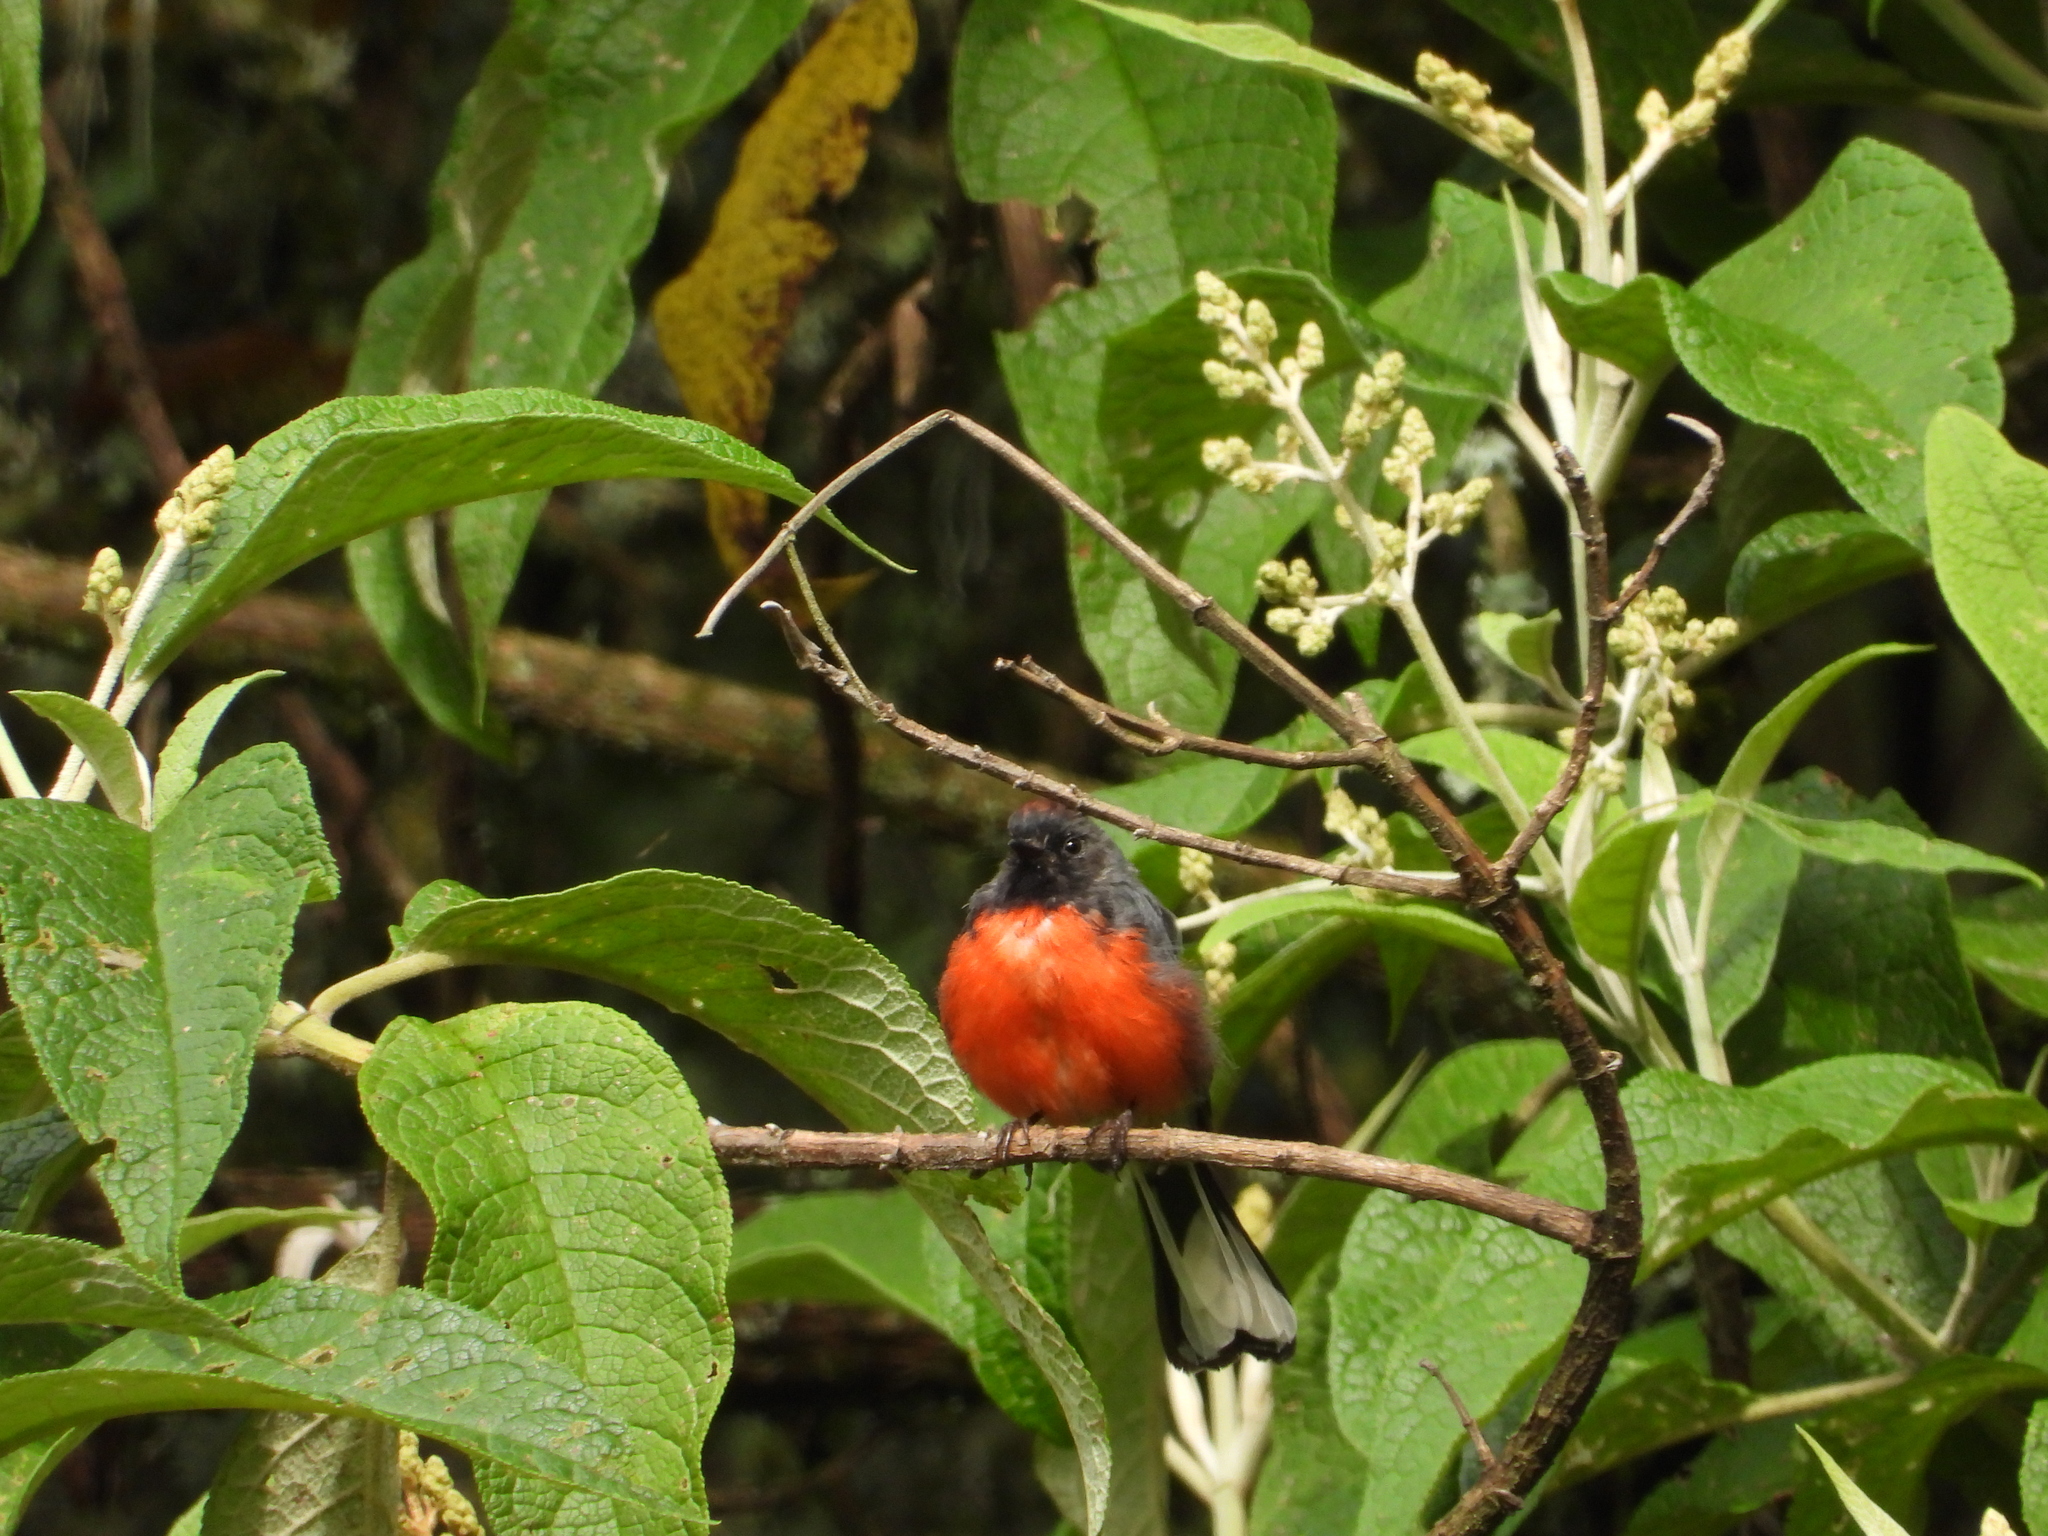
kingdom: Animalia
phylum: Chordata
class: Aves
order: Passeriformes
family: Parulidae
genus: Myioborus
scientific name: Myioborus miniatus
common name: Slate-throated redstart
